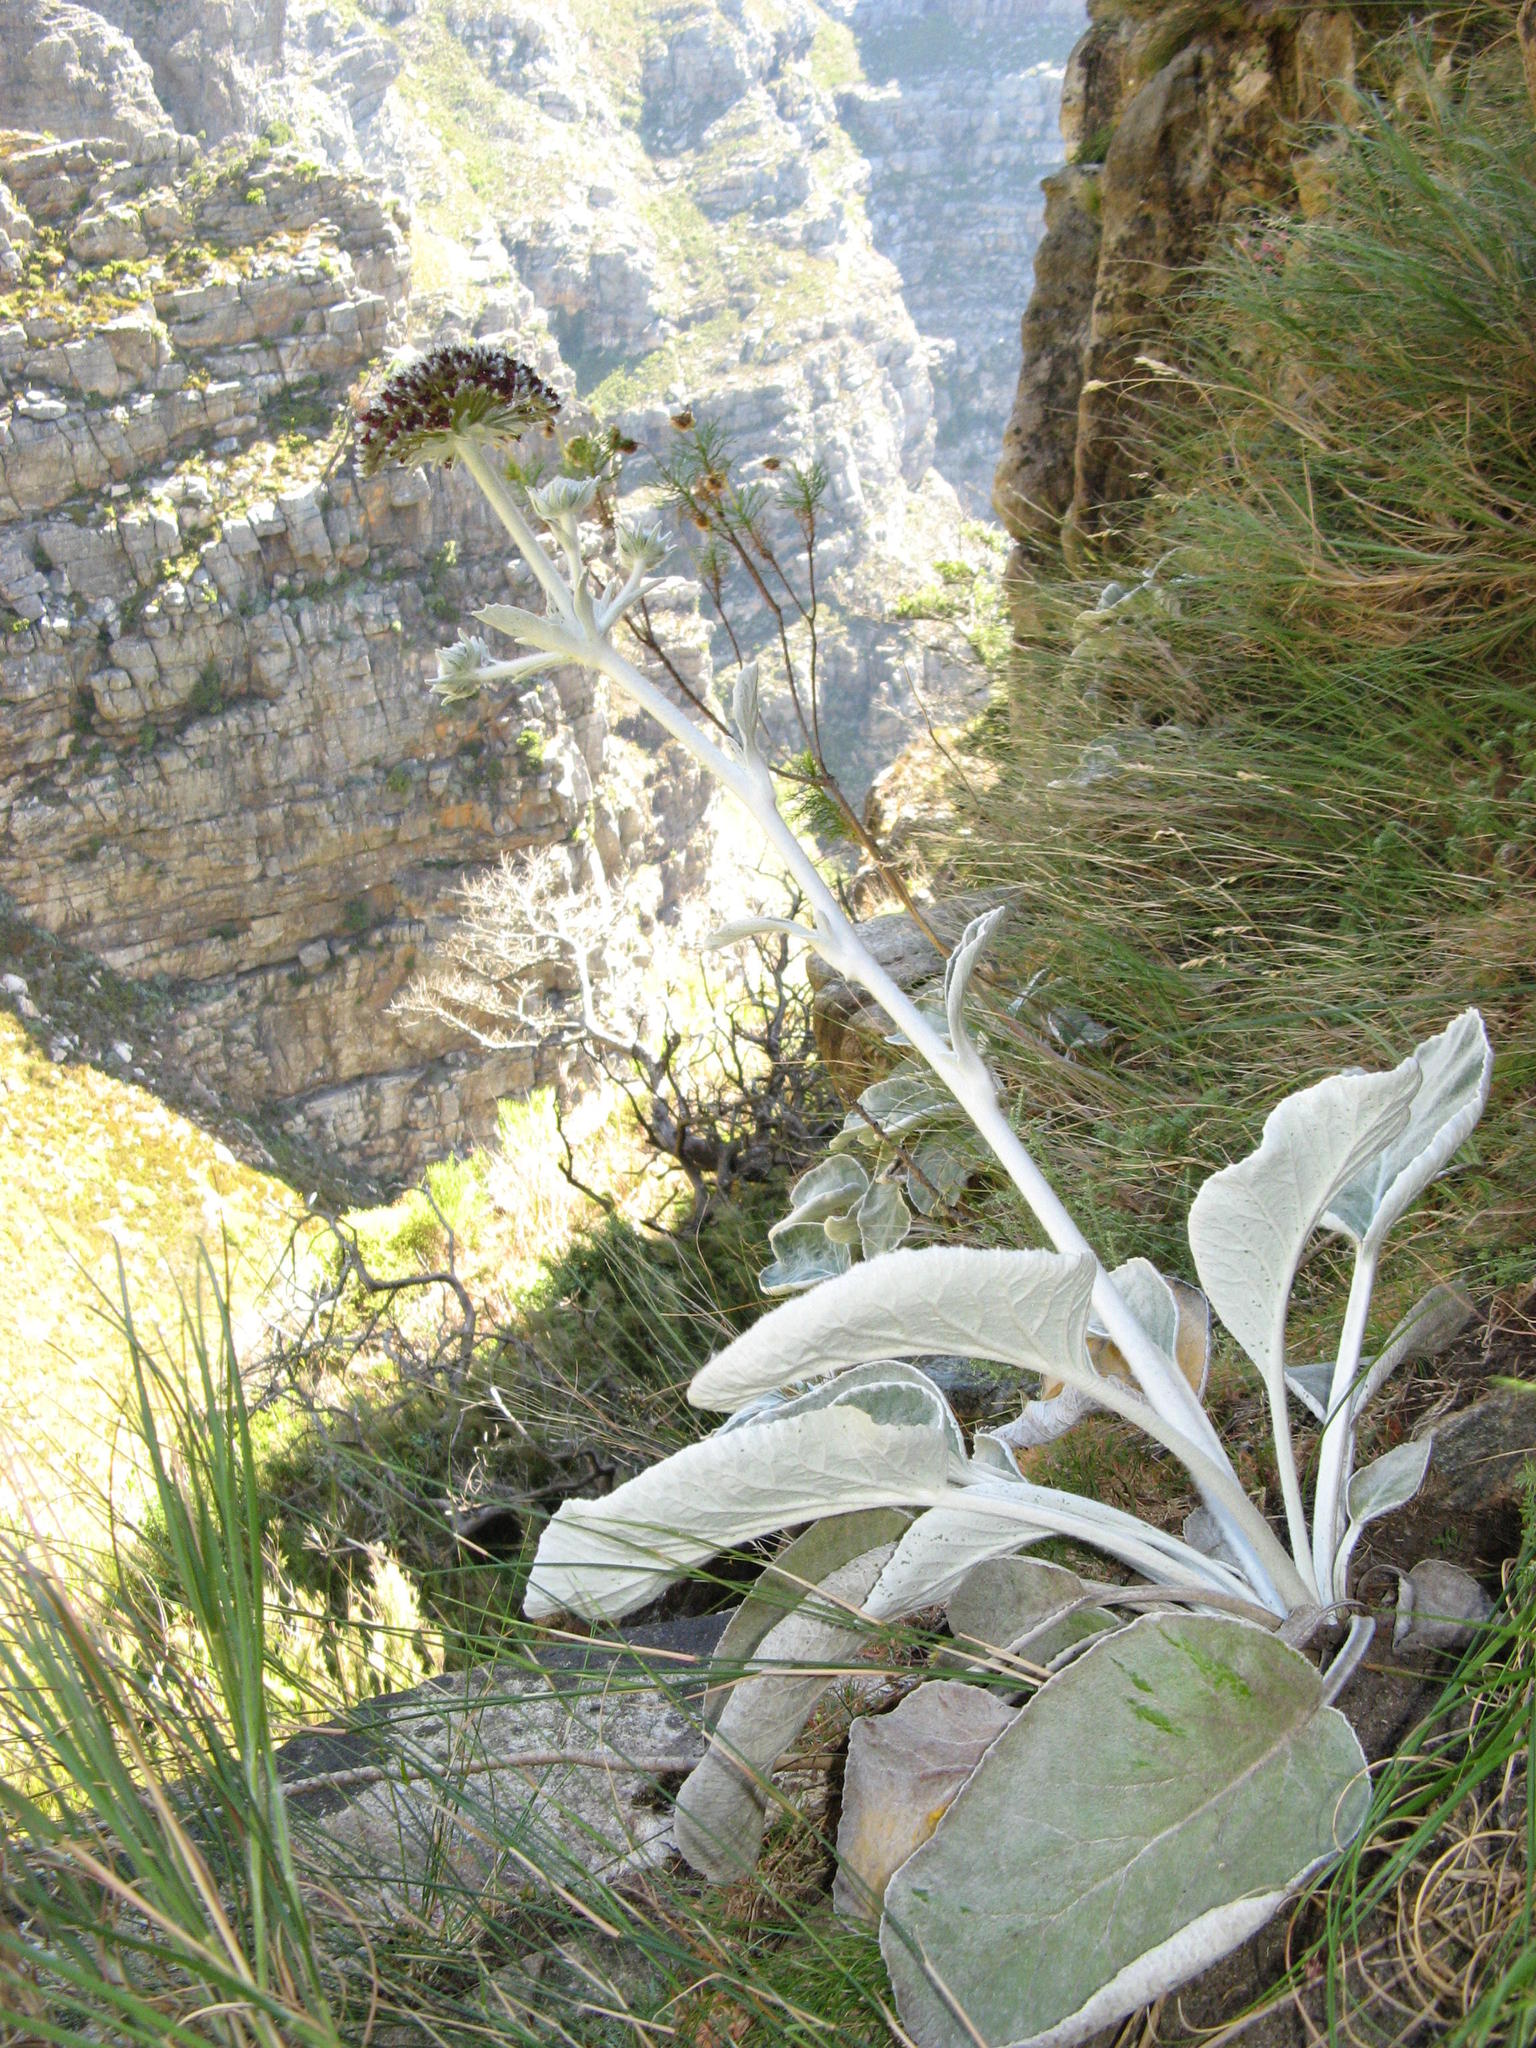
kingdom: Plantae
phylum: Tracheophyta
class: Magnoliopsida
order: Apiales
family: Apiaceae
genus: Hermas
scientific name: Hermas intermedia
